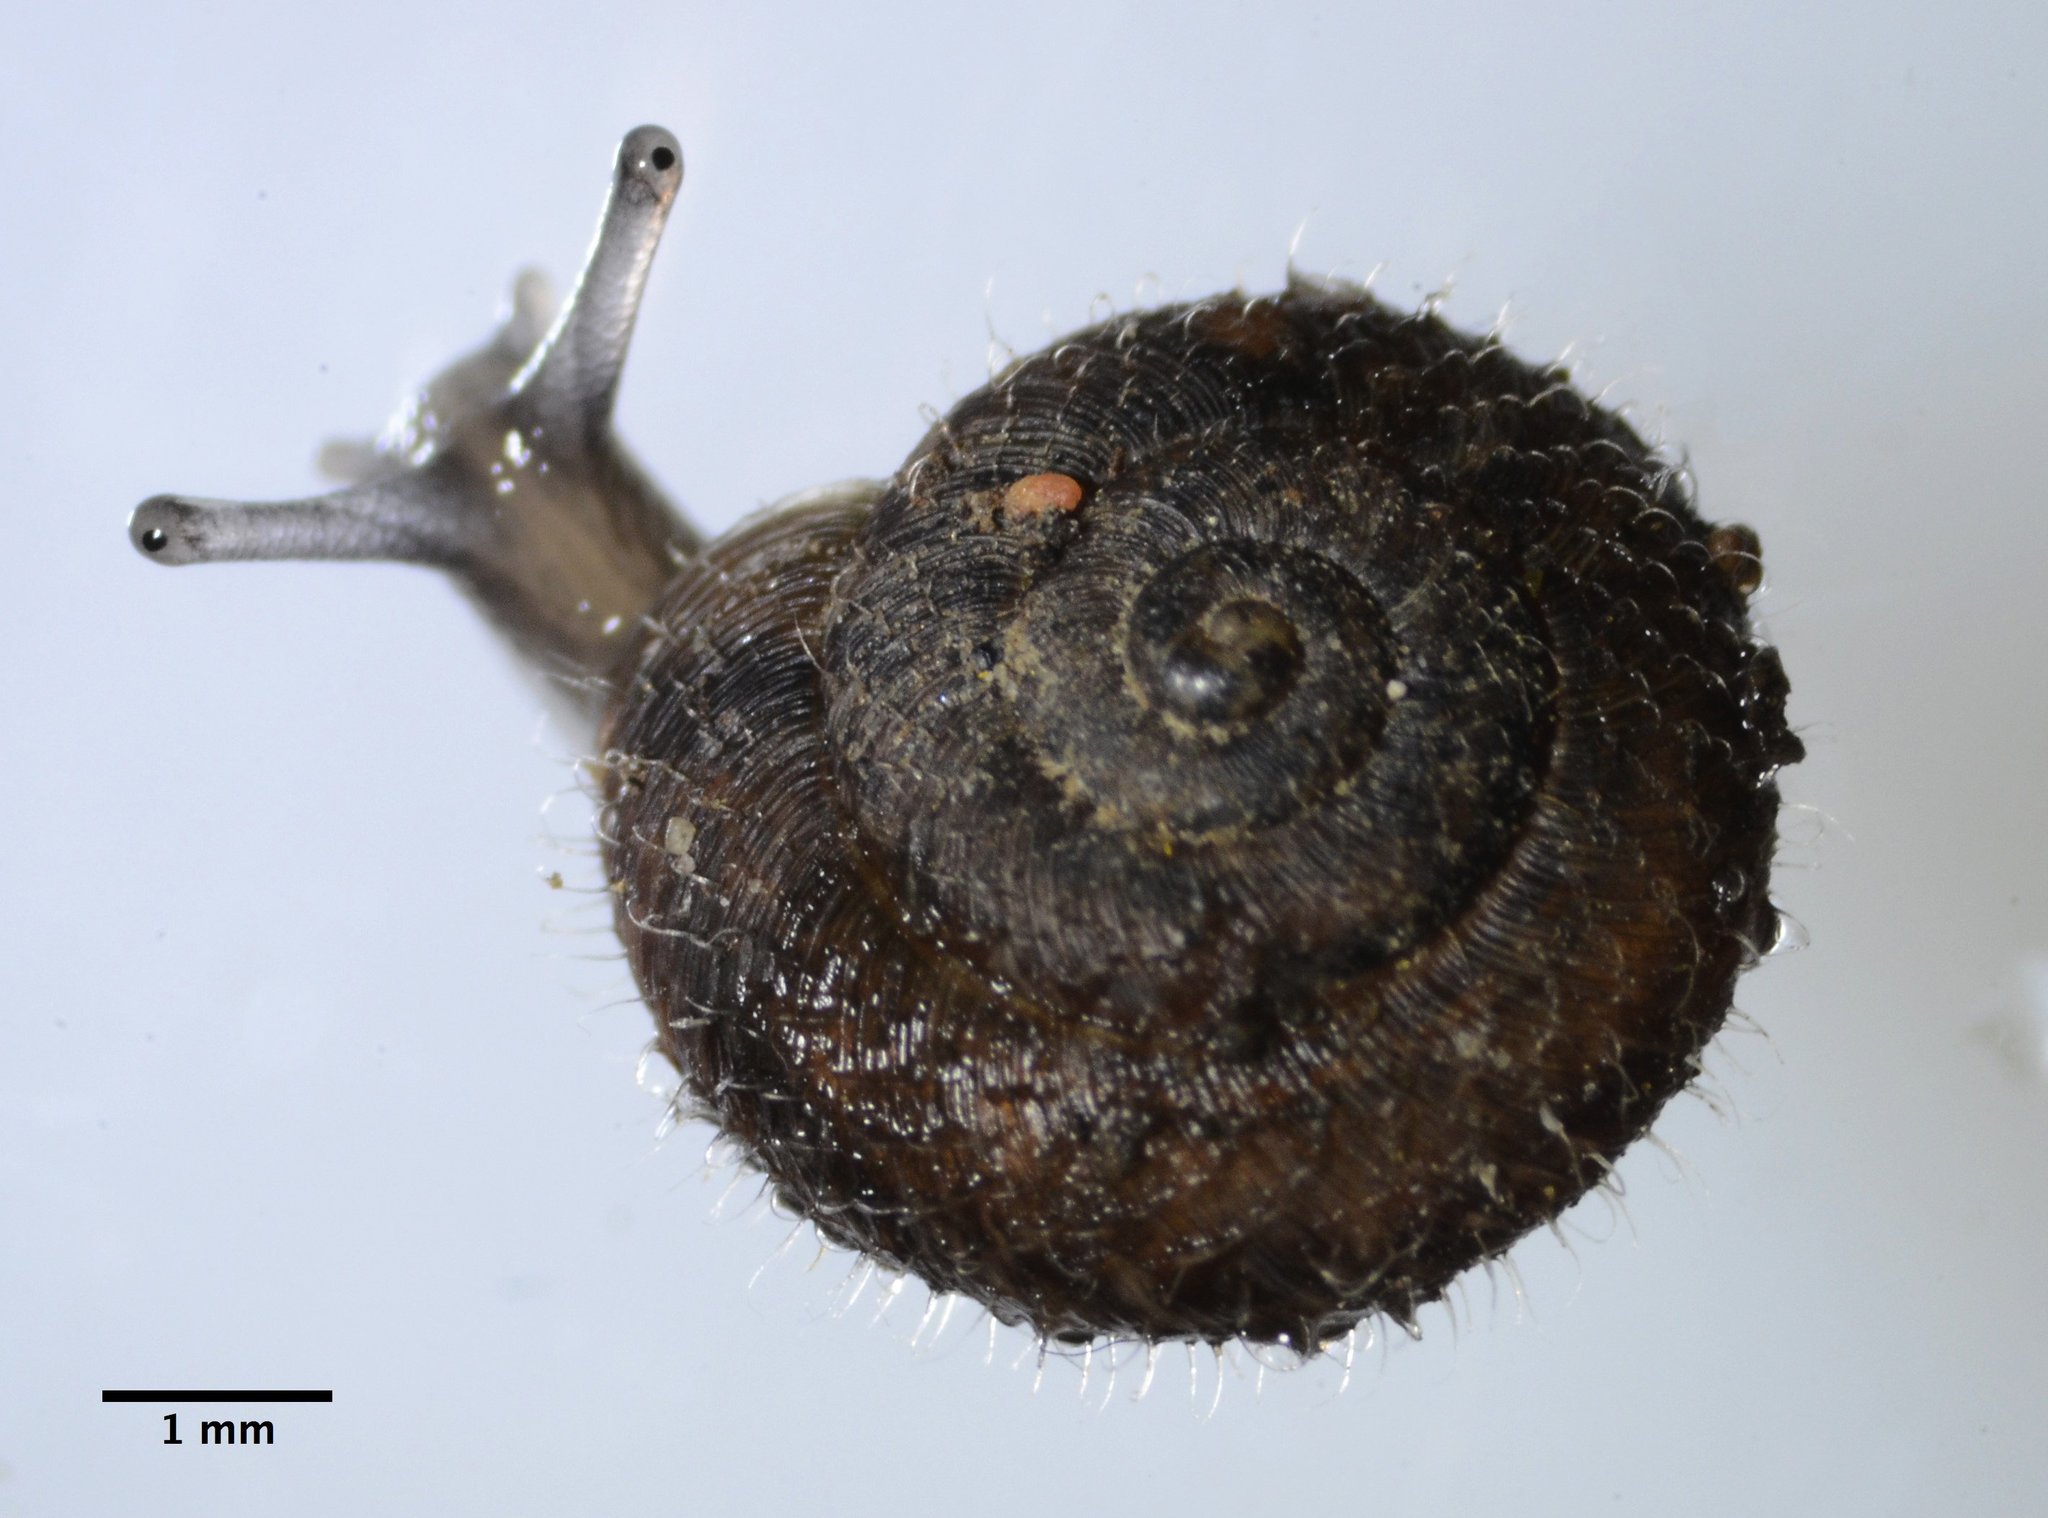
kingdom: Animalia
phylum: Mollusca
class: Gastropoda
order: Stylommatophora
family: Geomitridae
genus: Xerotricha
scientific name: Xerotricha conspurcata
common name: Snail
